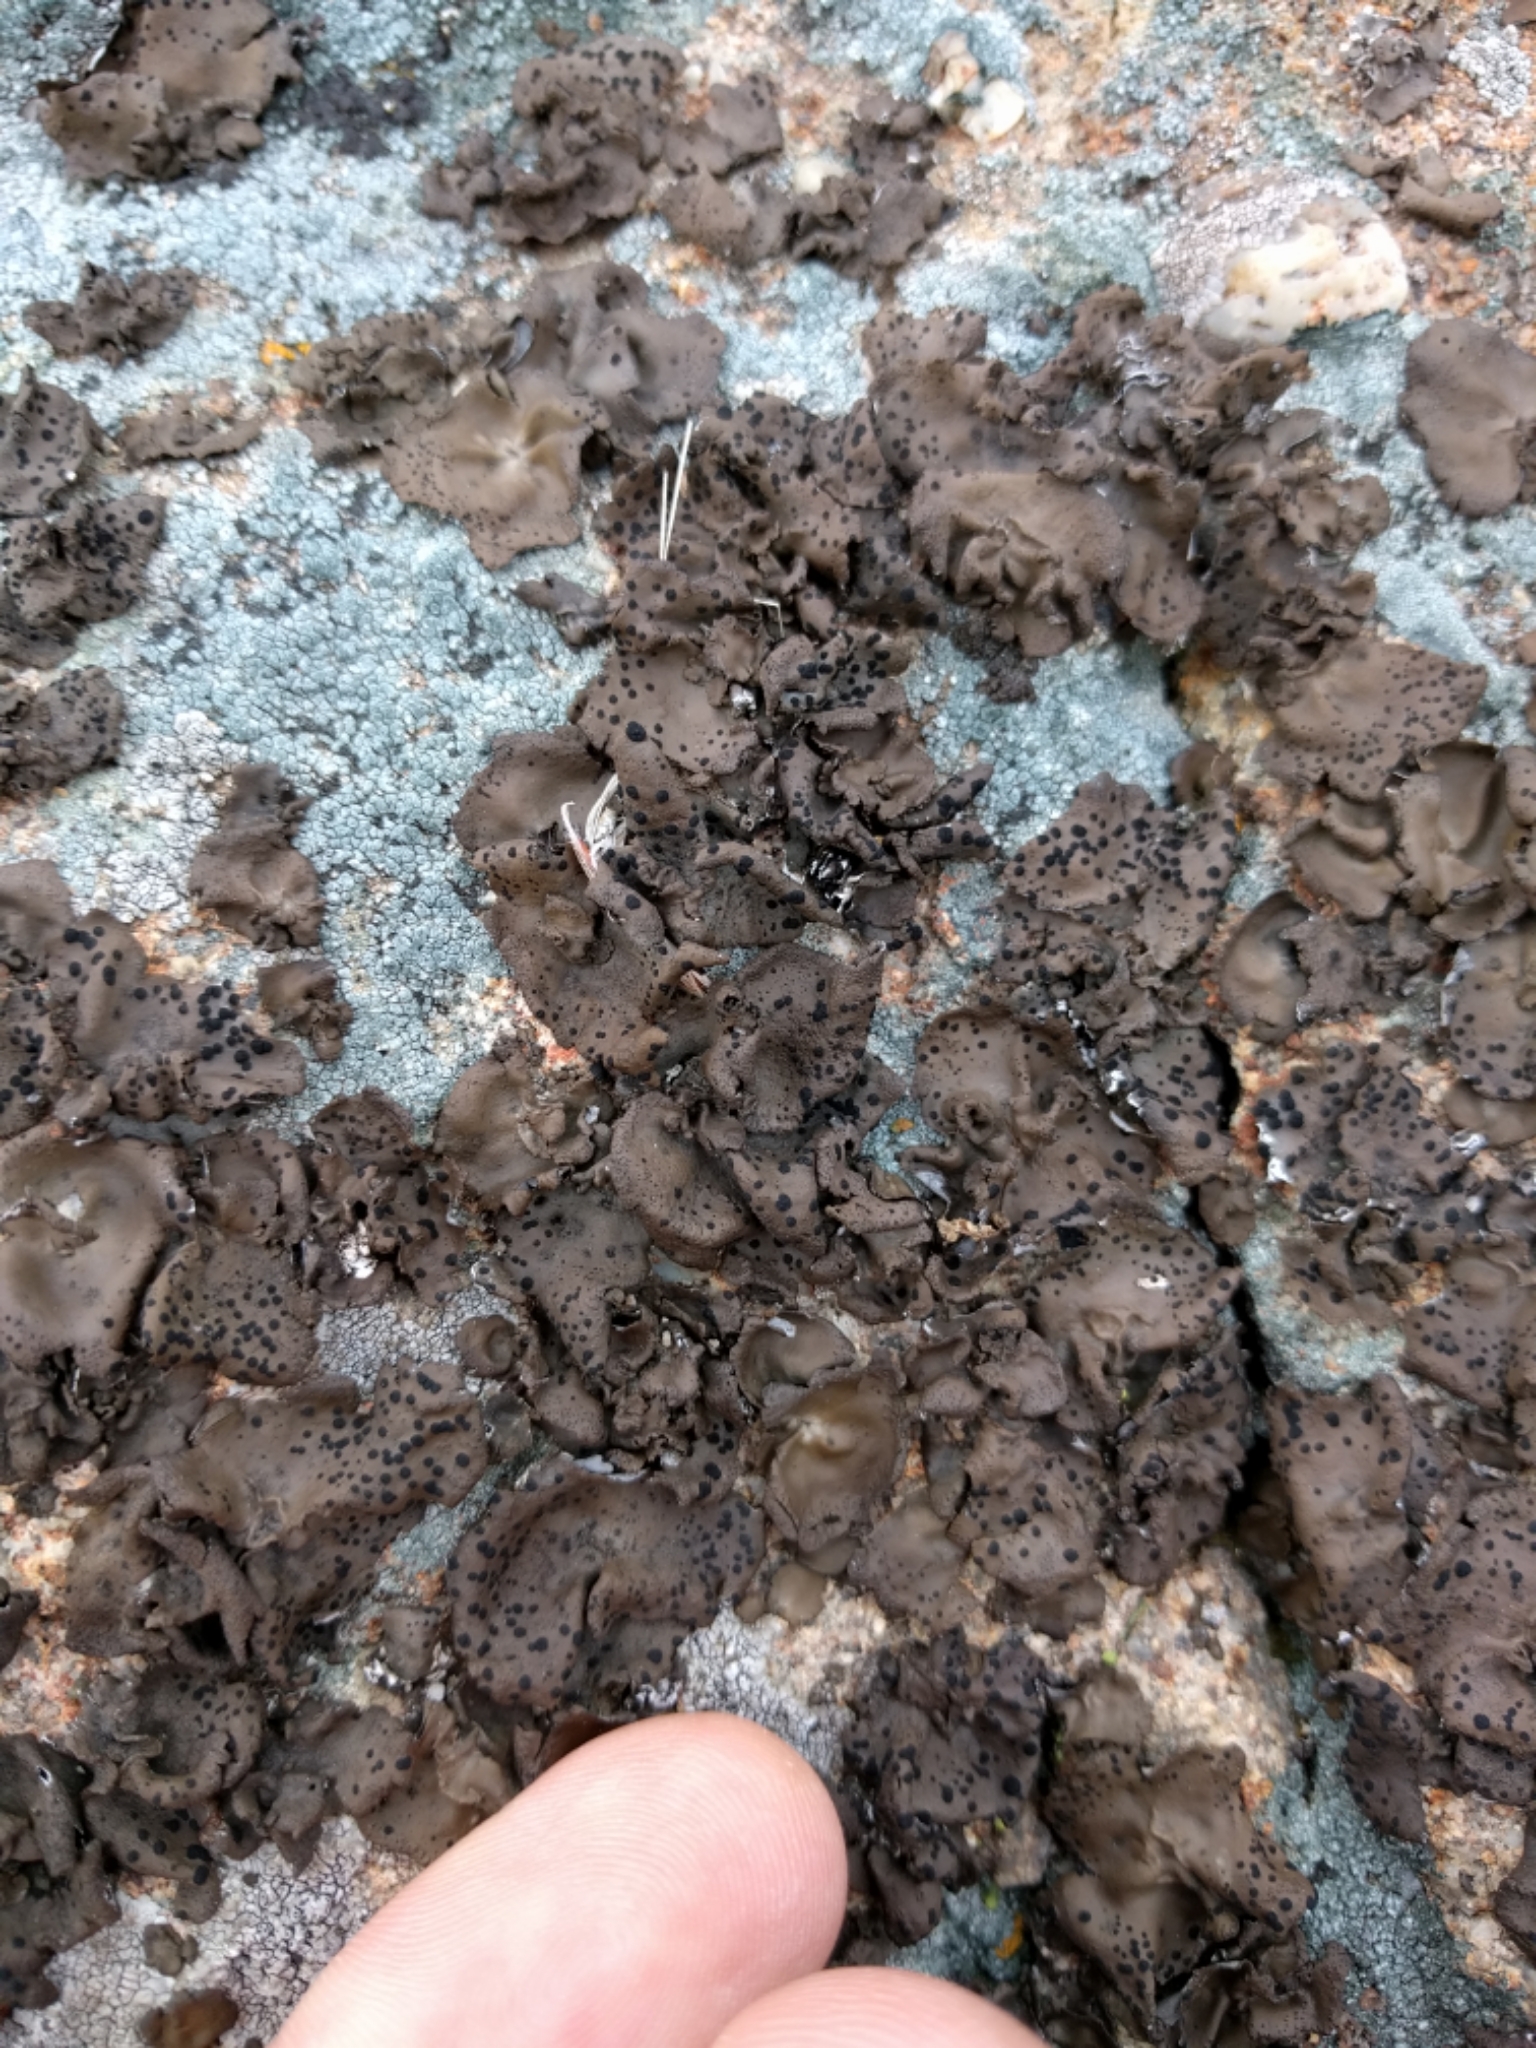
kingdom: Fungi
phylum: Ascomycota
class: Lecanoromycetes
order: Umbilicariales
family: Umbilicariaceae
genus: Umbilicaria
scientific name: Umbilicaria phaea
